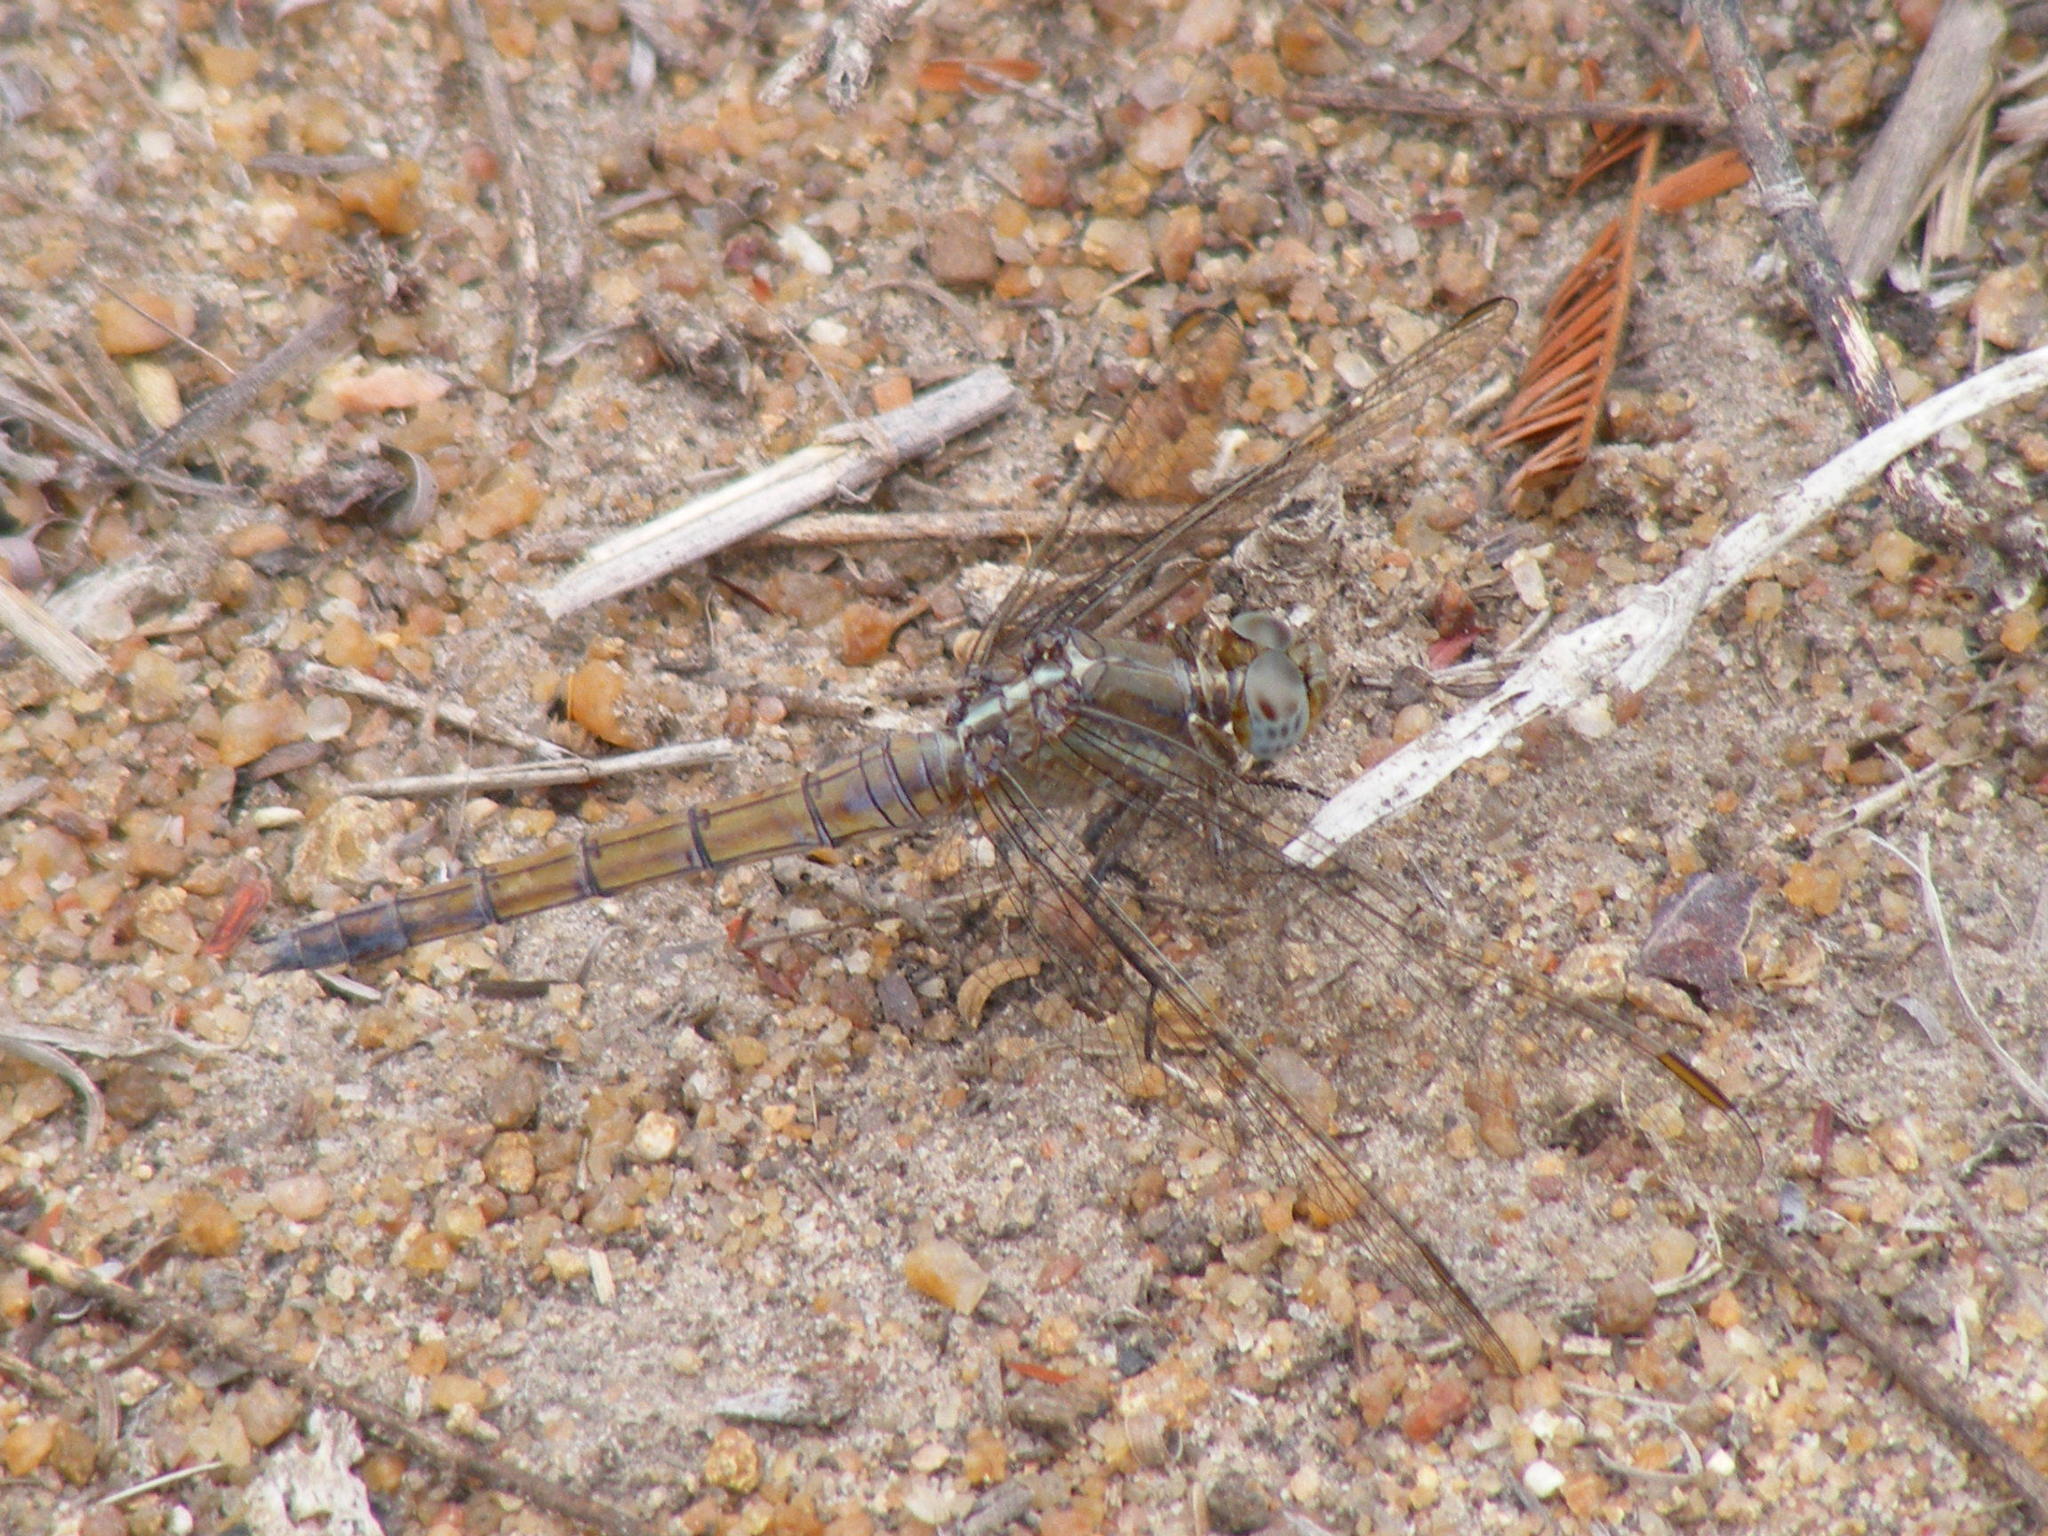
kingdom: Animalia
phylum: Arthropoda
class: Insecta
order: Odonata
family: Libellulidae
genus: Orthetrum
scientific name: Orthetrum chrysostigma
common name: Epaulet skimmer
